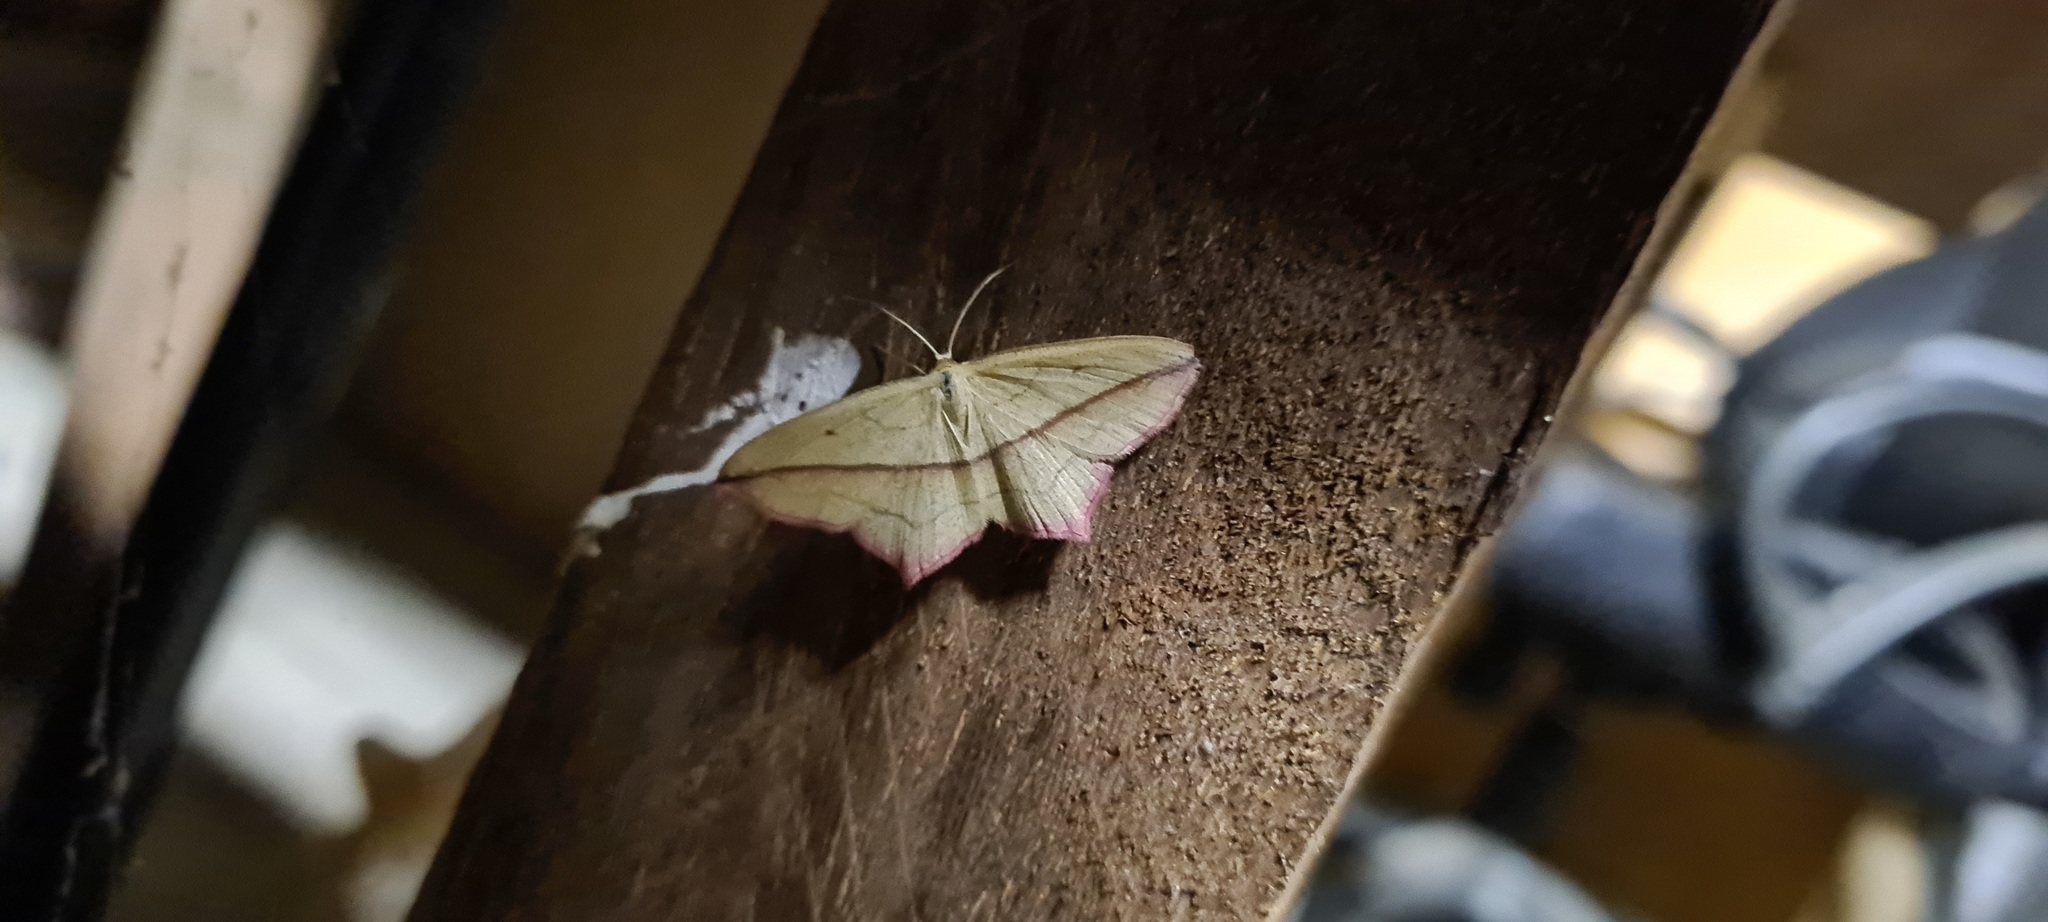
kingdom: Animalia
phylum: Arthropoda
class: Insecta
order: Lepidoptera
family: Geometridae
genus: Timandra
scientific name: Timandra comae
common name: Blood-vein
